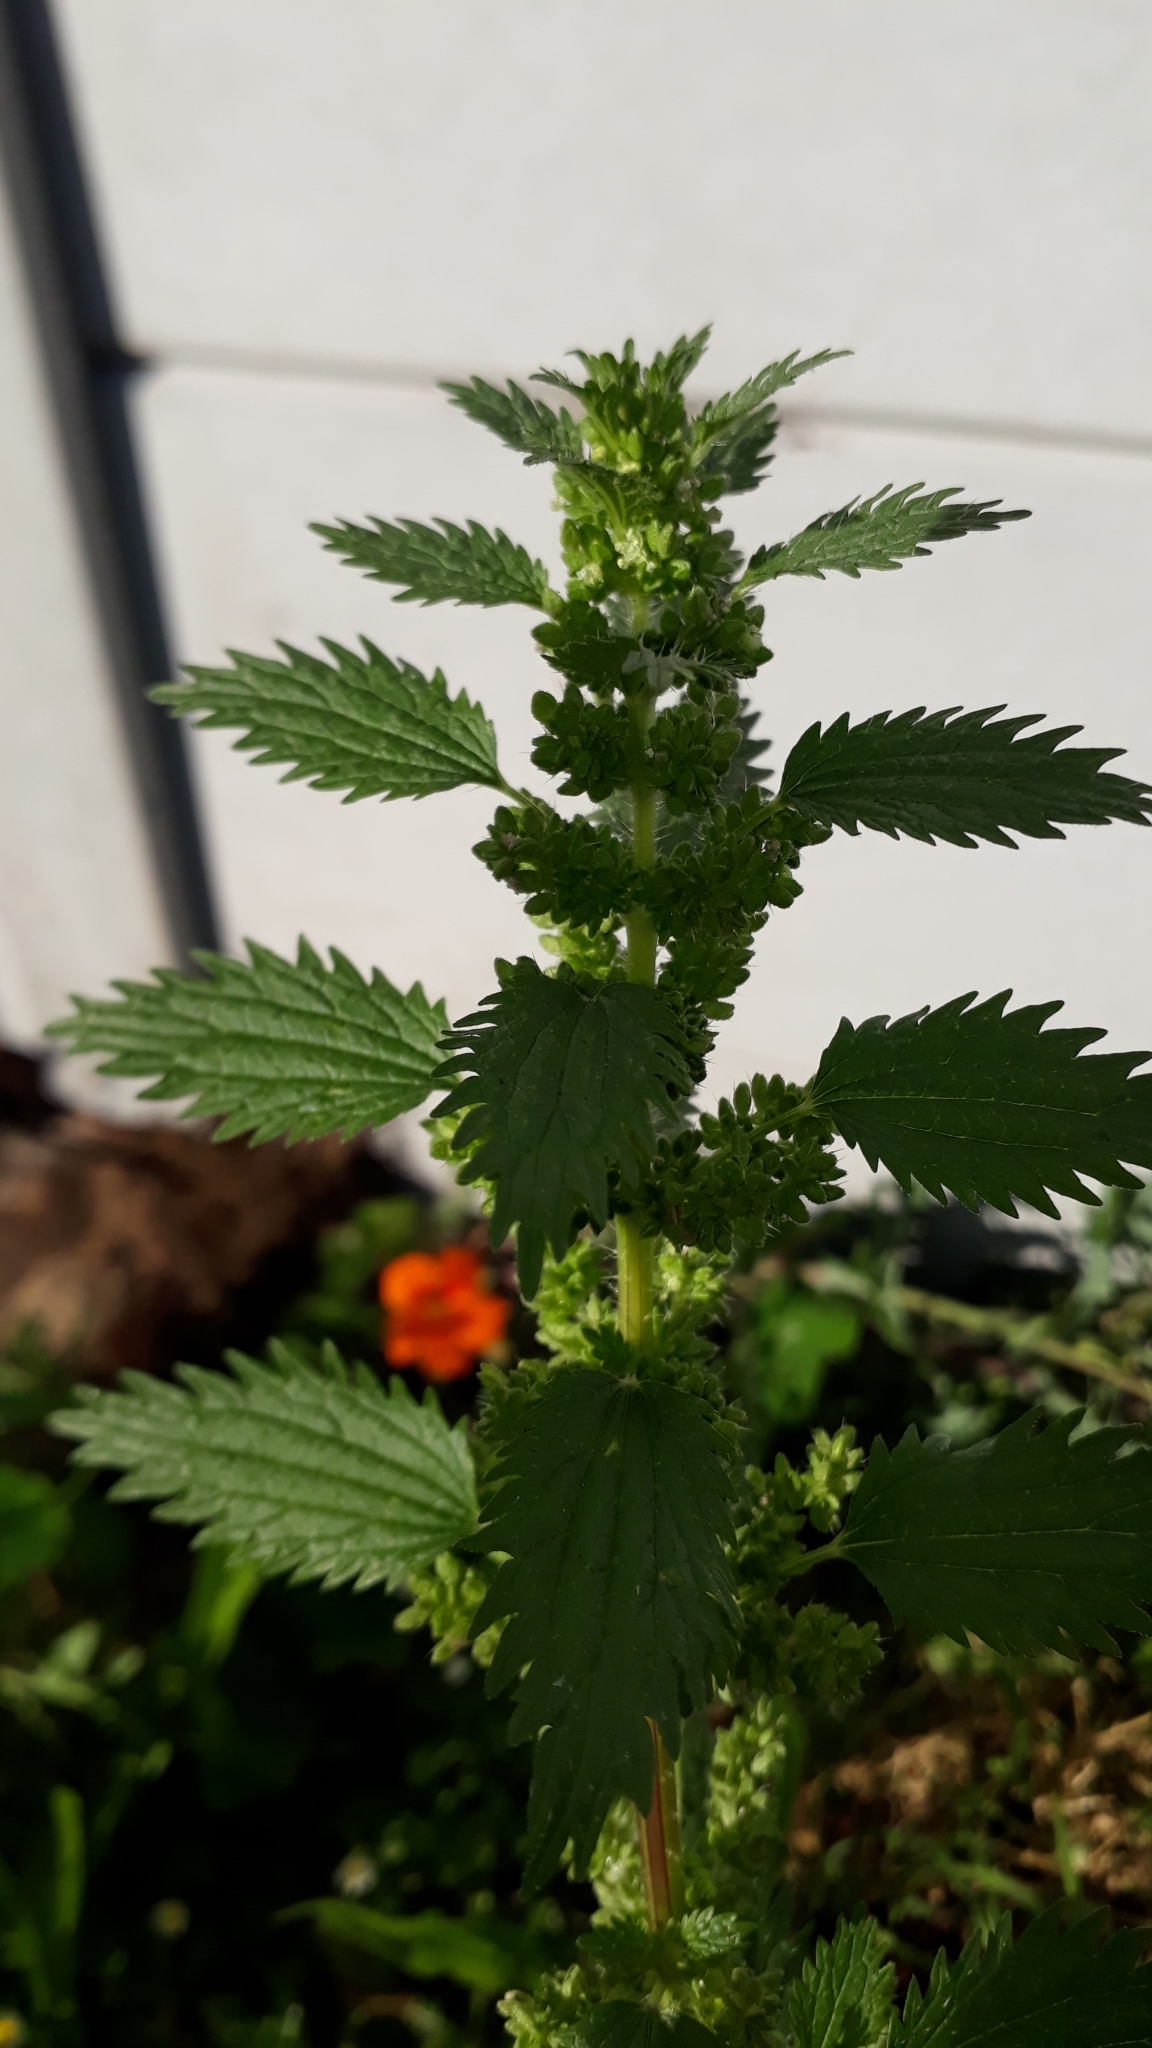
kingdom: Plantae
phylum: Tracheophyta
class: Magnoliopsida
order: Rosales
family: Urticaceae
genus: Urtica
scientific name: Urtica urens
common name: Dwarf nettle
